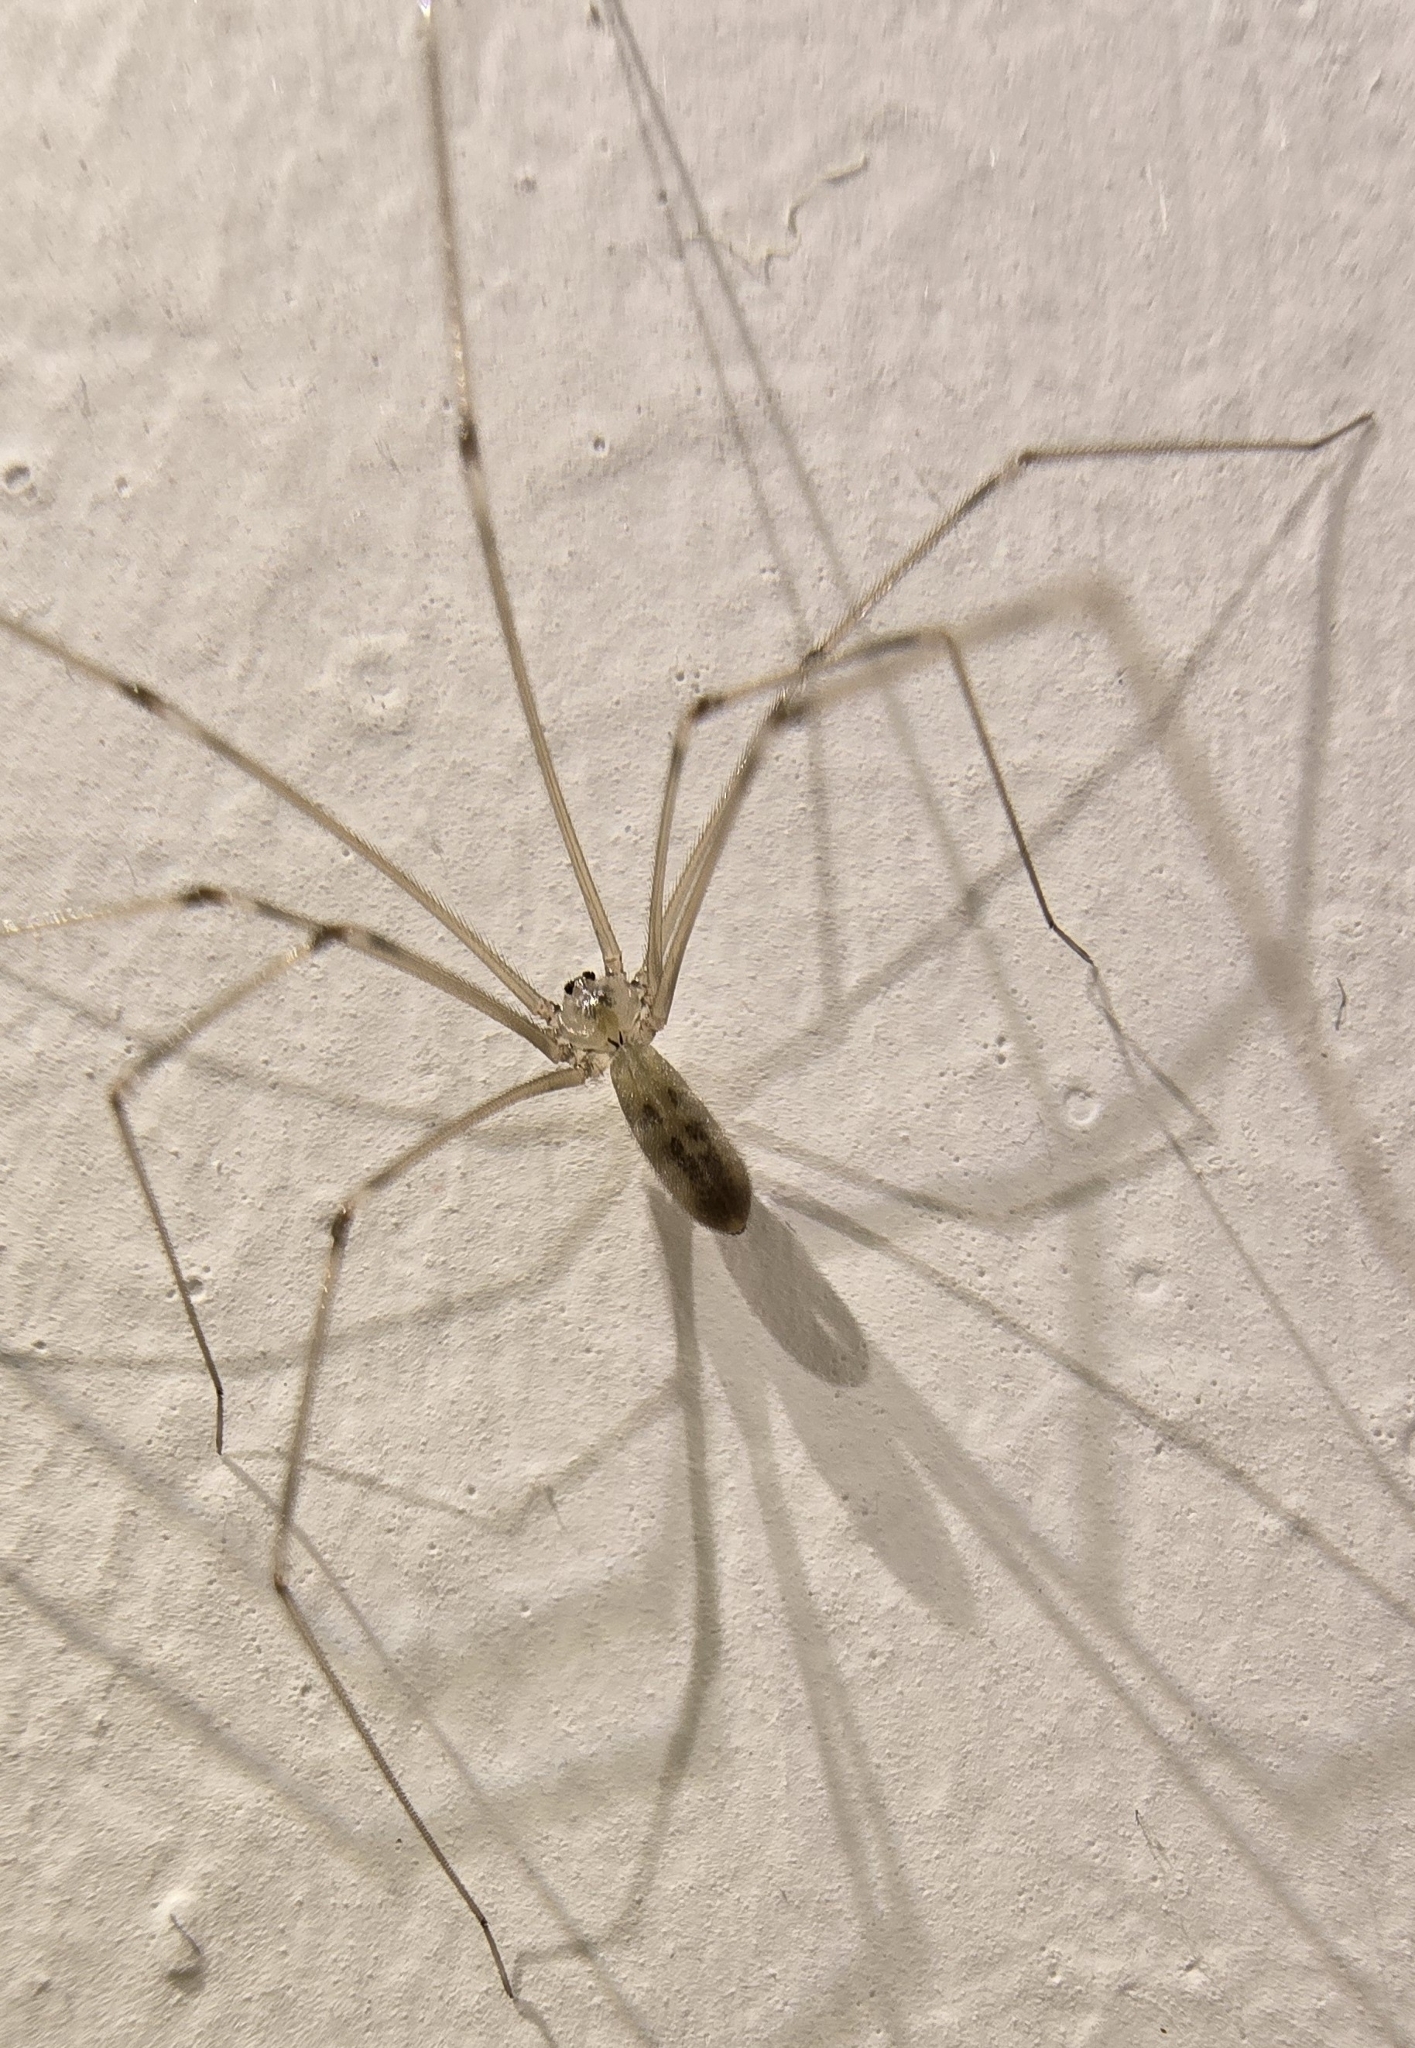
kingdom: Animalia
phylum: Arthropoda
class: Arachnida
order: Araneae
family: Pholcidae
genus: Pholcus
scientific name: Pholcus phalangioides
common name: Longbodied cellar spider
